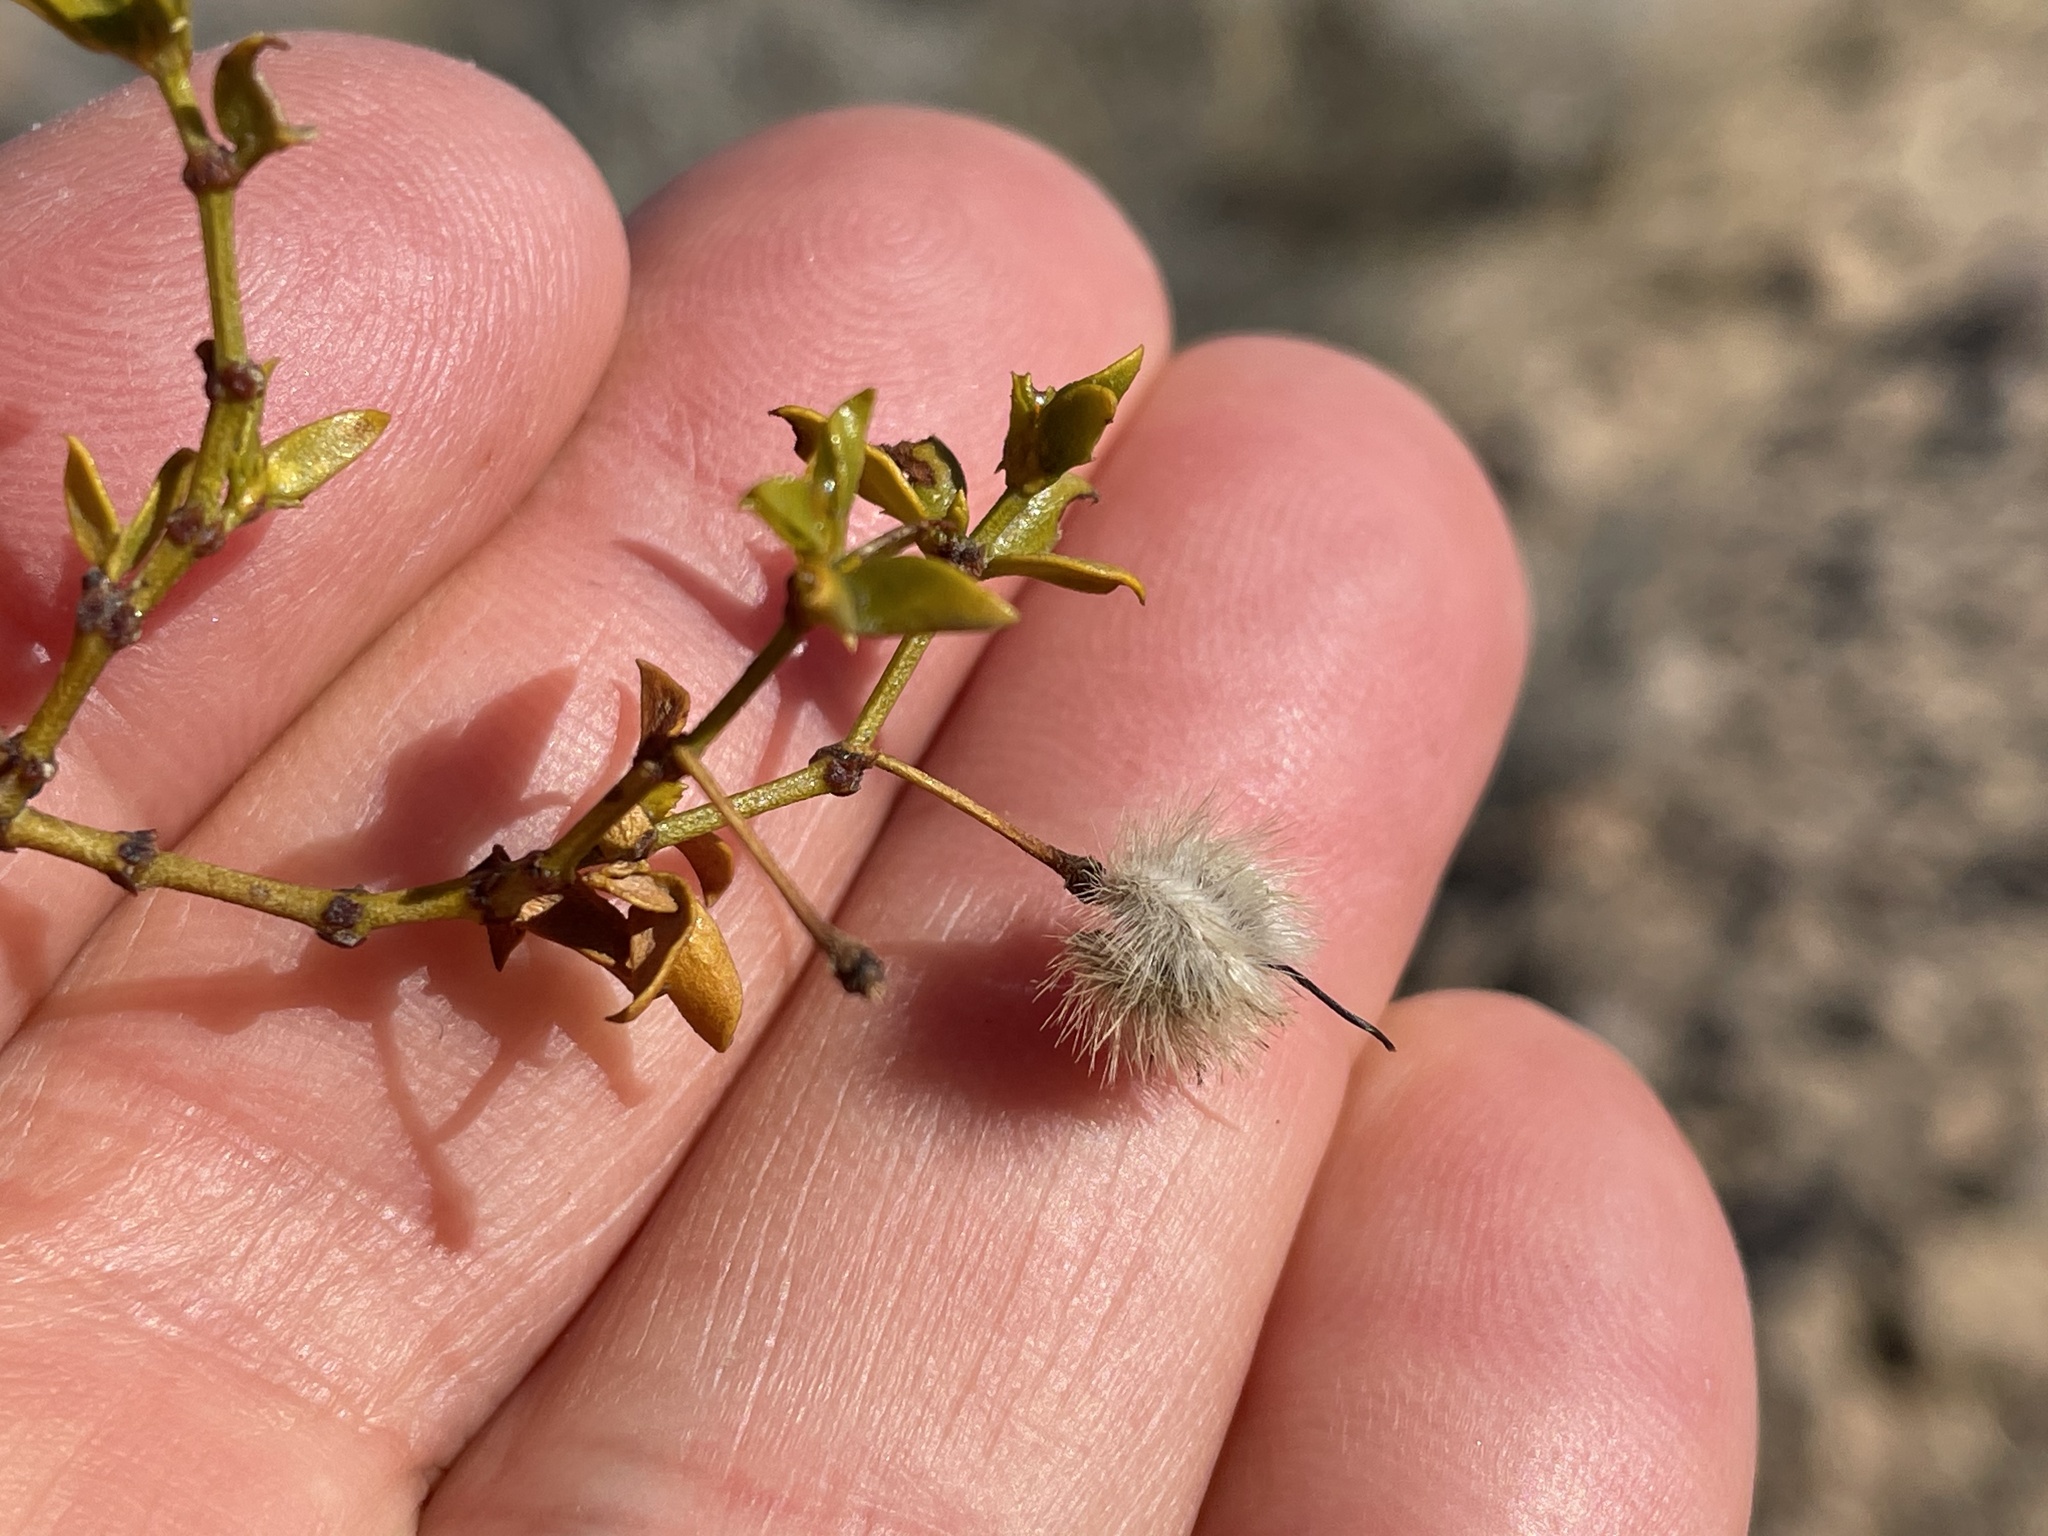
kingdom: Plantae
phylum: Tracheophyta
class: Magnoliopsida
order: Zygophyllales
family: Zygophyllaceae
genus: Larrea
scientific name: Larrea tridentata
